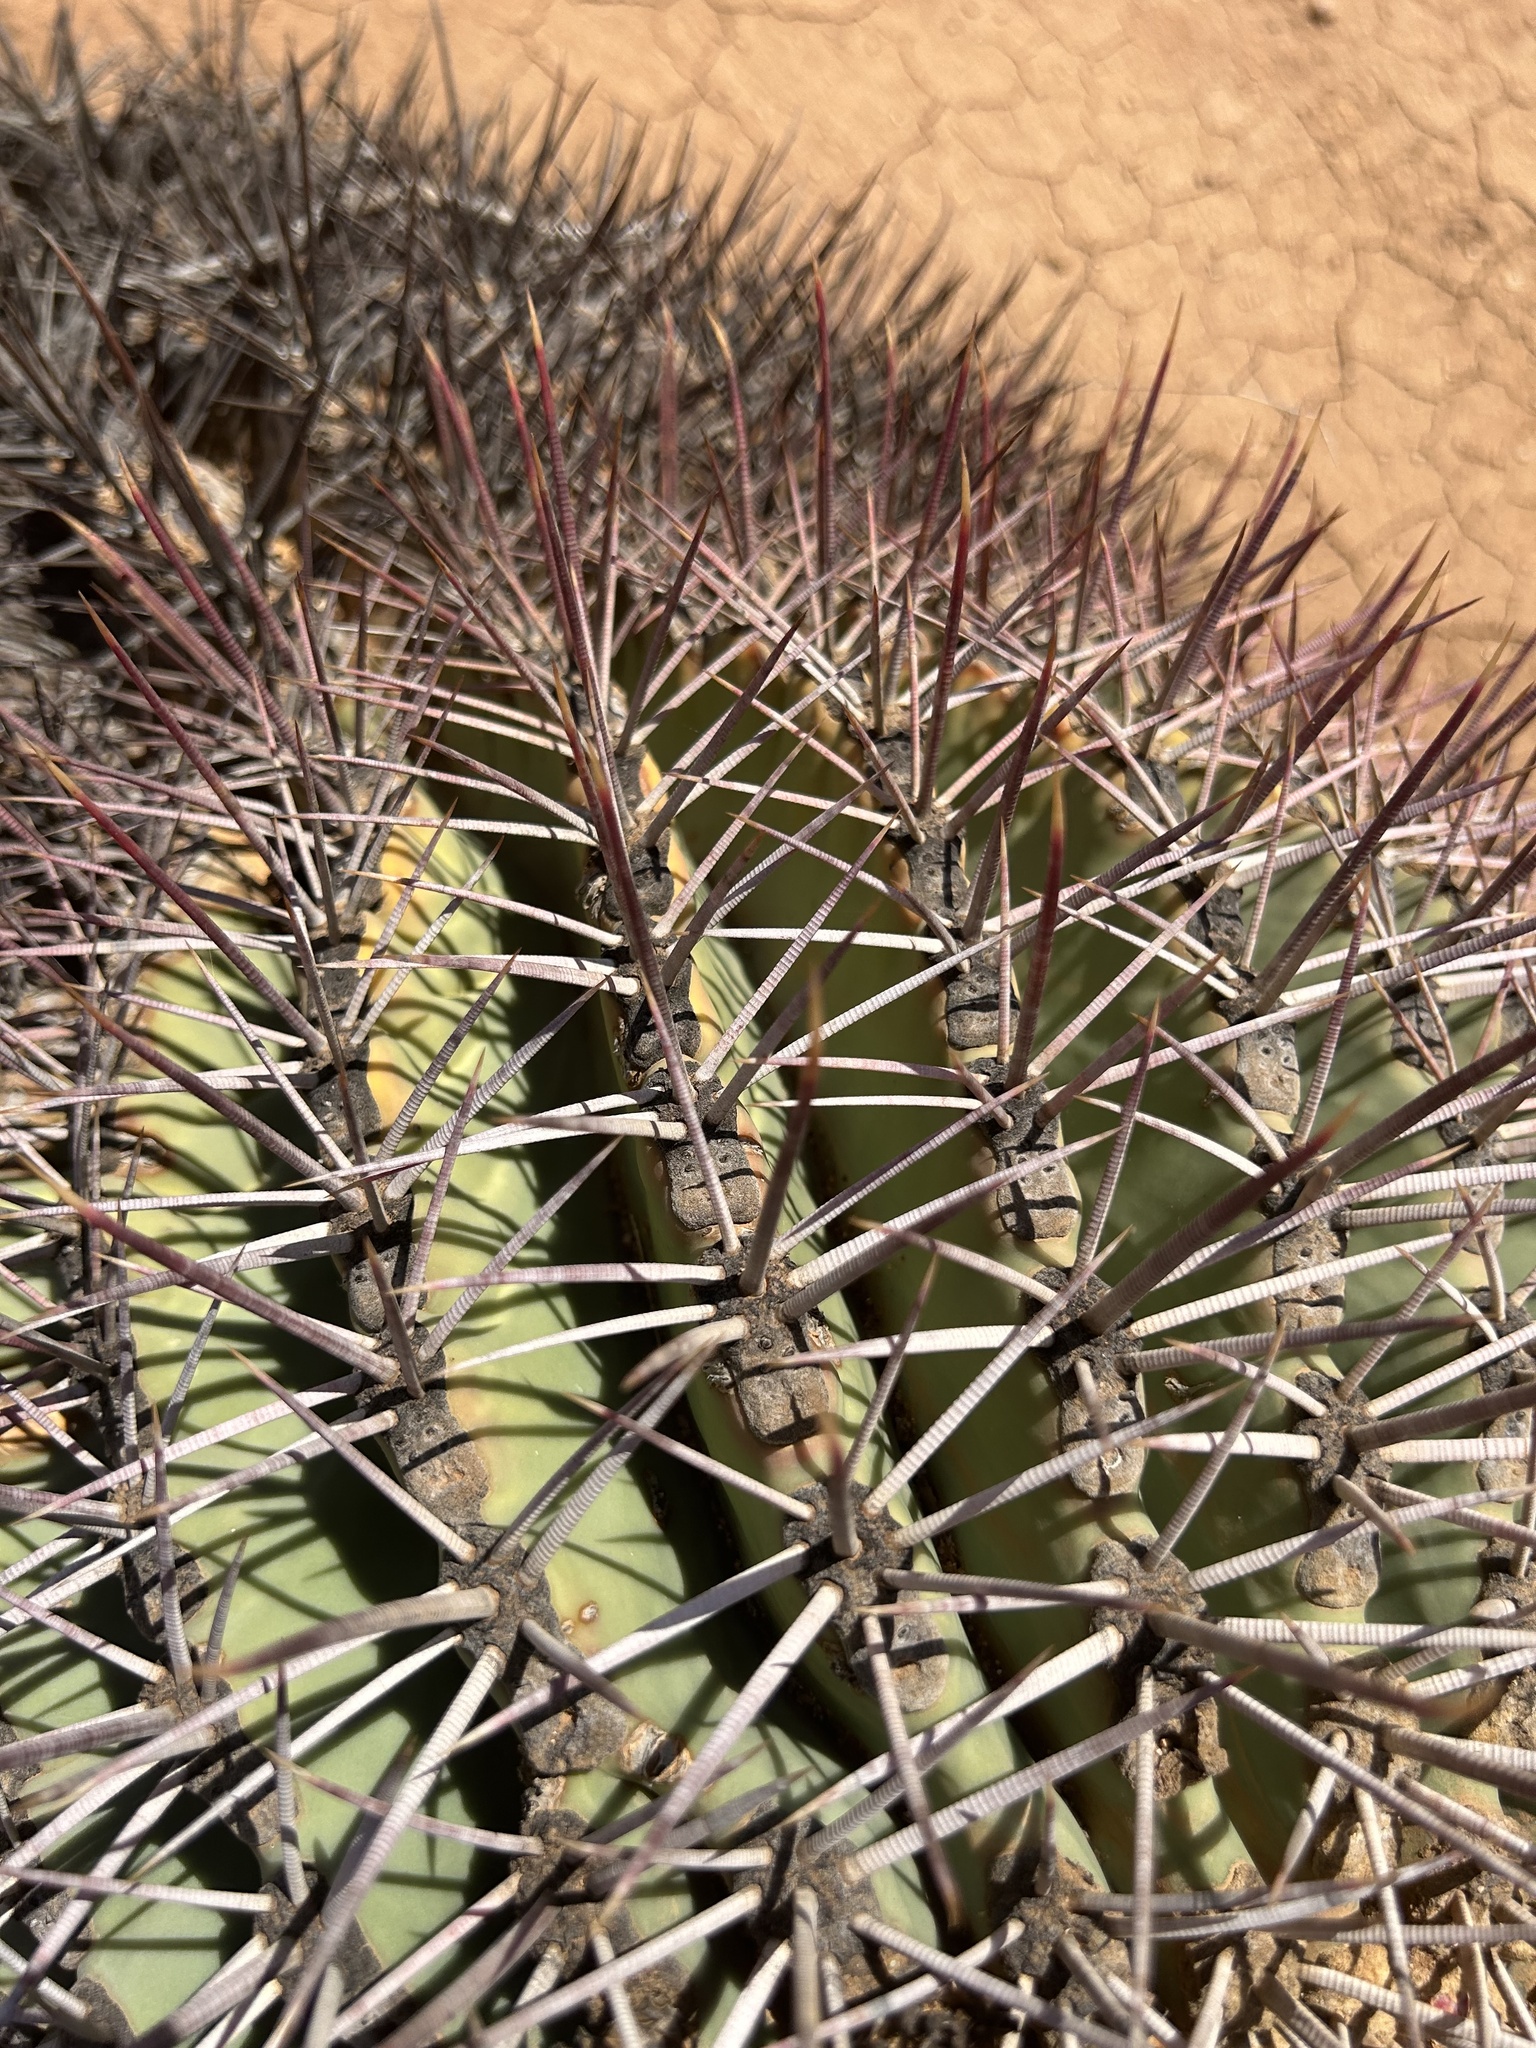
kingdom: Plantae
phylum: Tracheophyta
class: Magnoliopsida
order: Caryophyllales
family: Cactaceae
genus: Ferocactus
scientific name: Ferocactus emoryi
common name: Emory's barrel cactus
